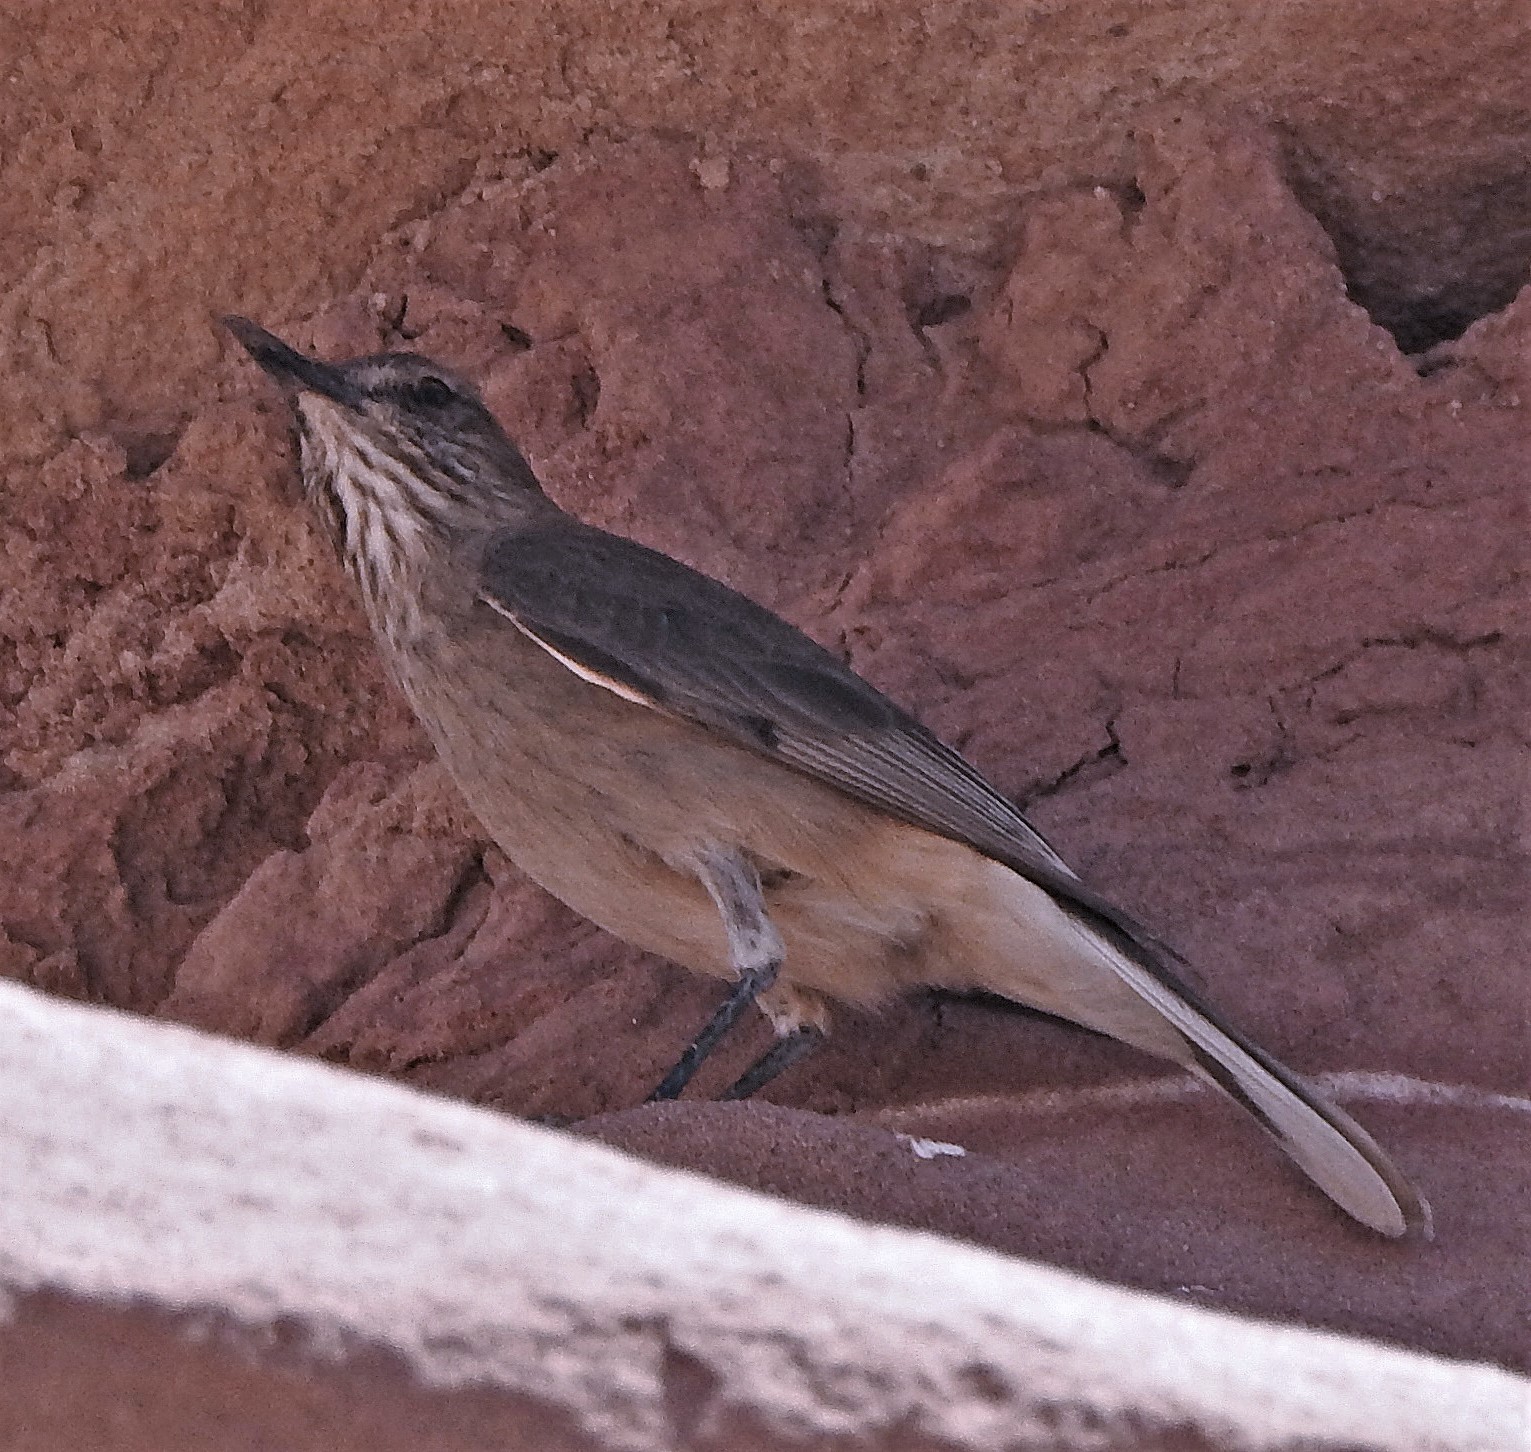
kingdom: Animalia
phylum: Chordata
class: Aves
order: Passeriformes
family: Tyrannidae
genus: Agriornis
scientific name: Agriornis montanus
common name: Black-billed shrike-tyrant
